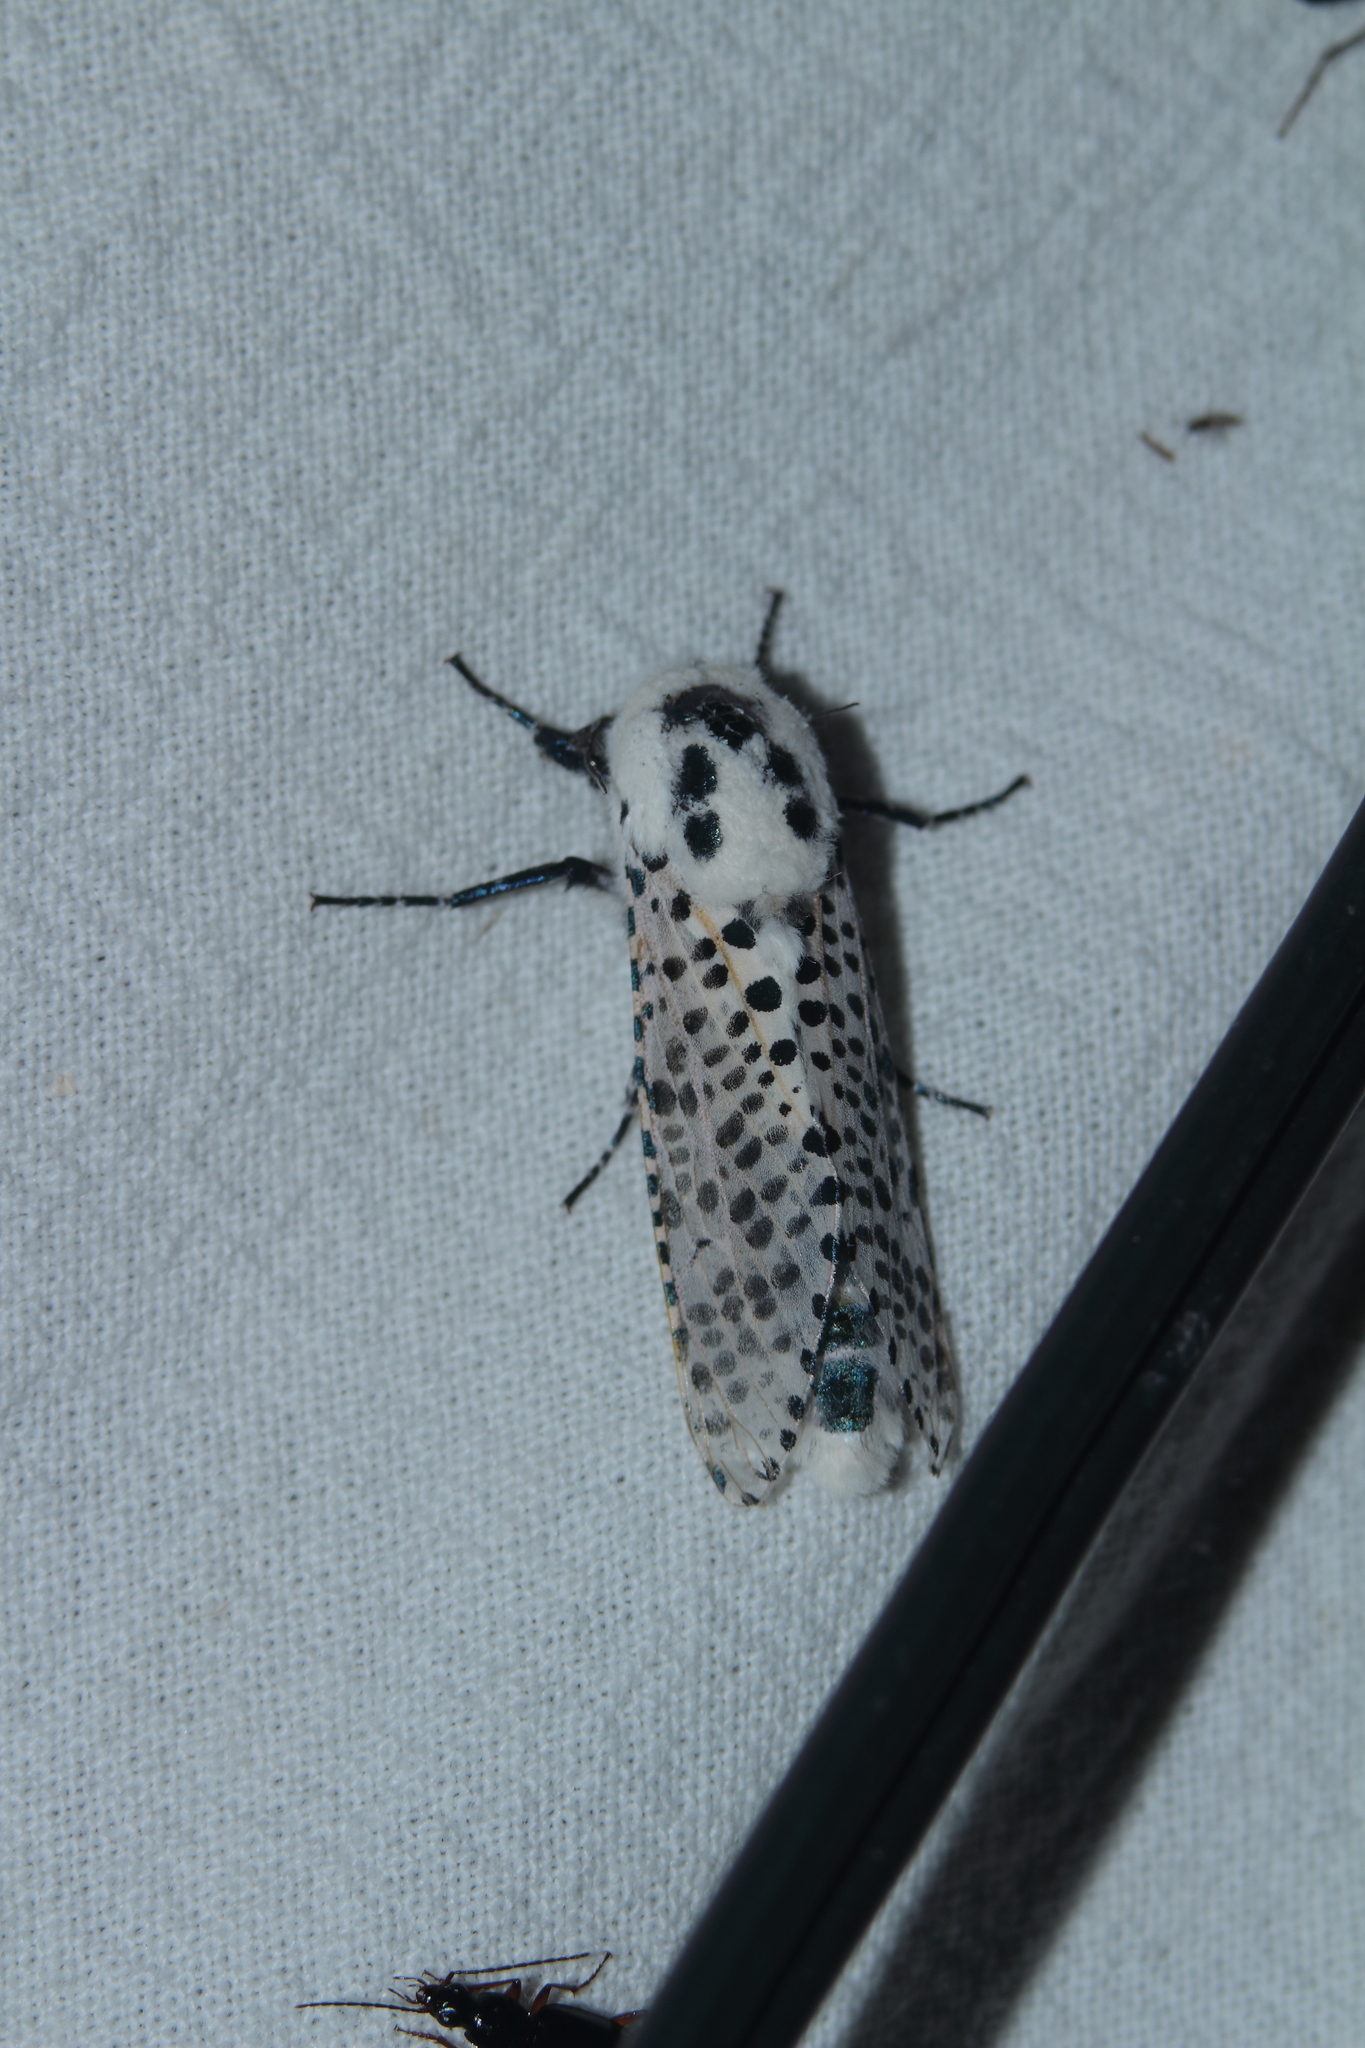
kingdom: Animalia
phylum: Arthropoda
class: Insecta
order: Lepidoptera
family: Cossidae
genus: Zeuzera
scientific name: Zeuzera pyrina
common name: Leopard moth
